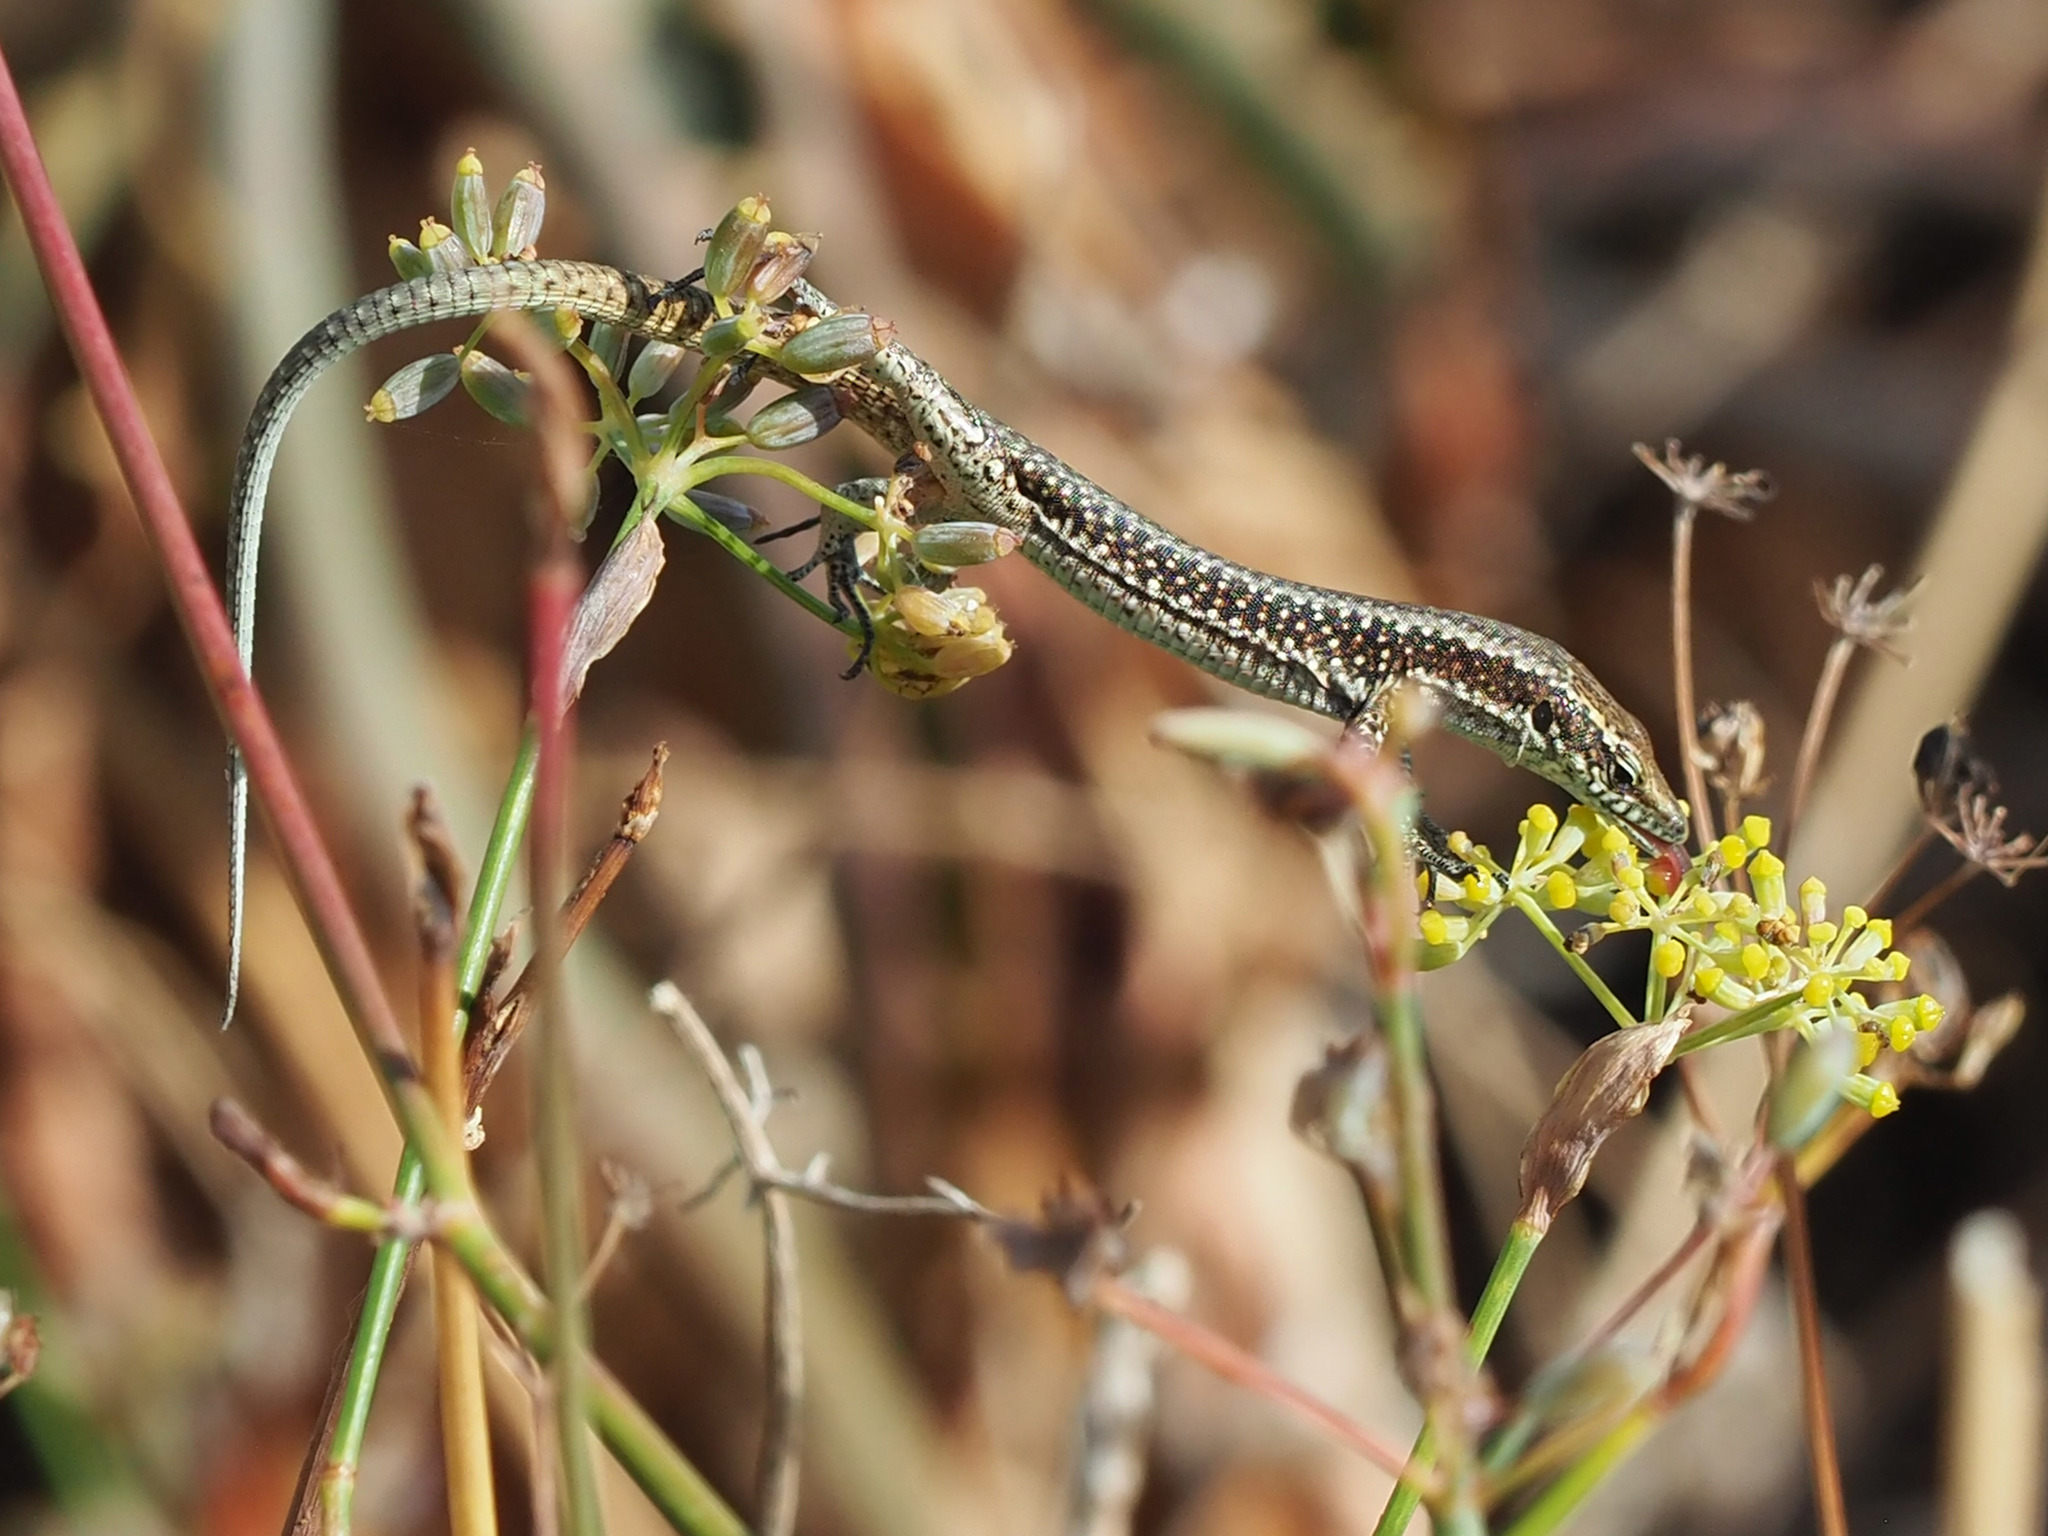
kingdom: Animalia
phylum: Chordata
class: Squamata
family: Lacertidae
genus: Teira
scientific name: Teira dugesii
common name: Madeira lizard
